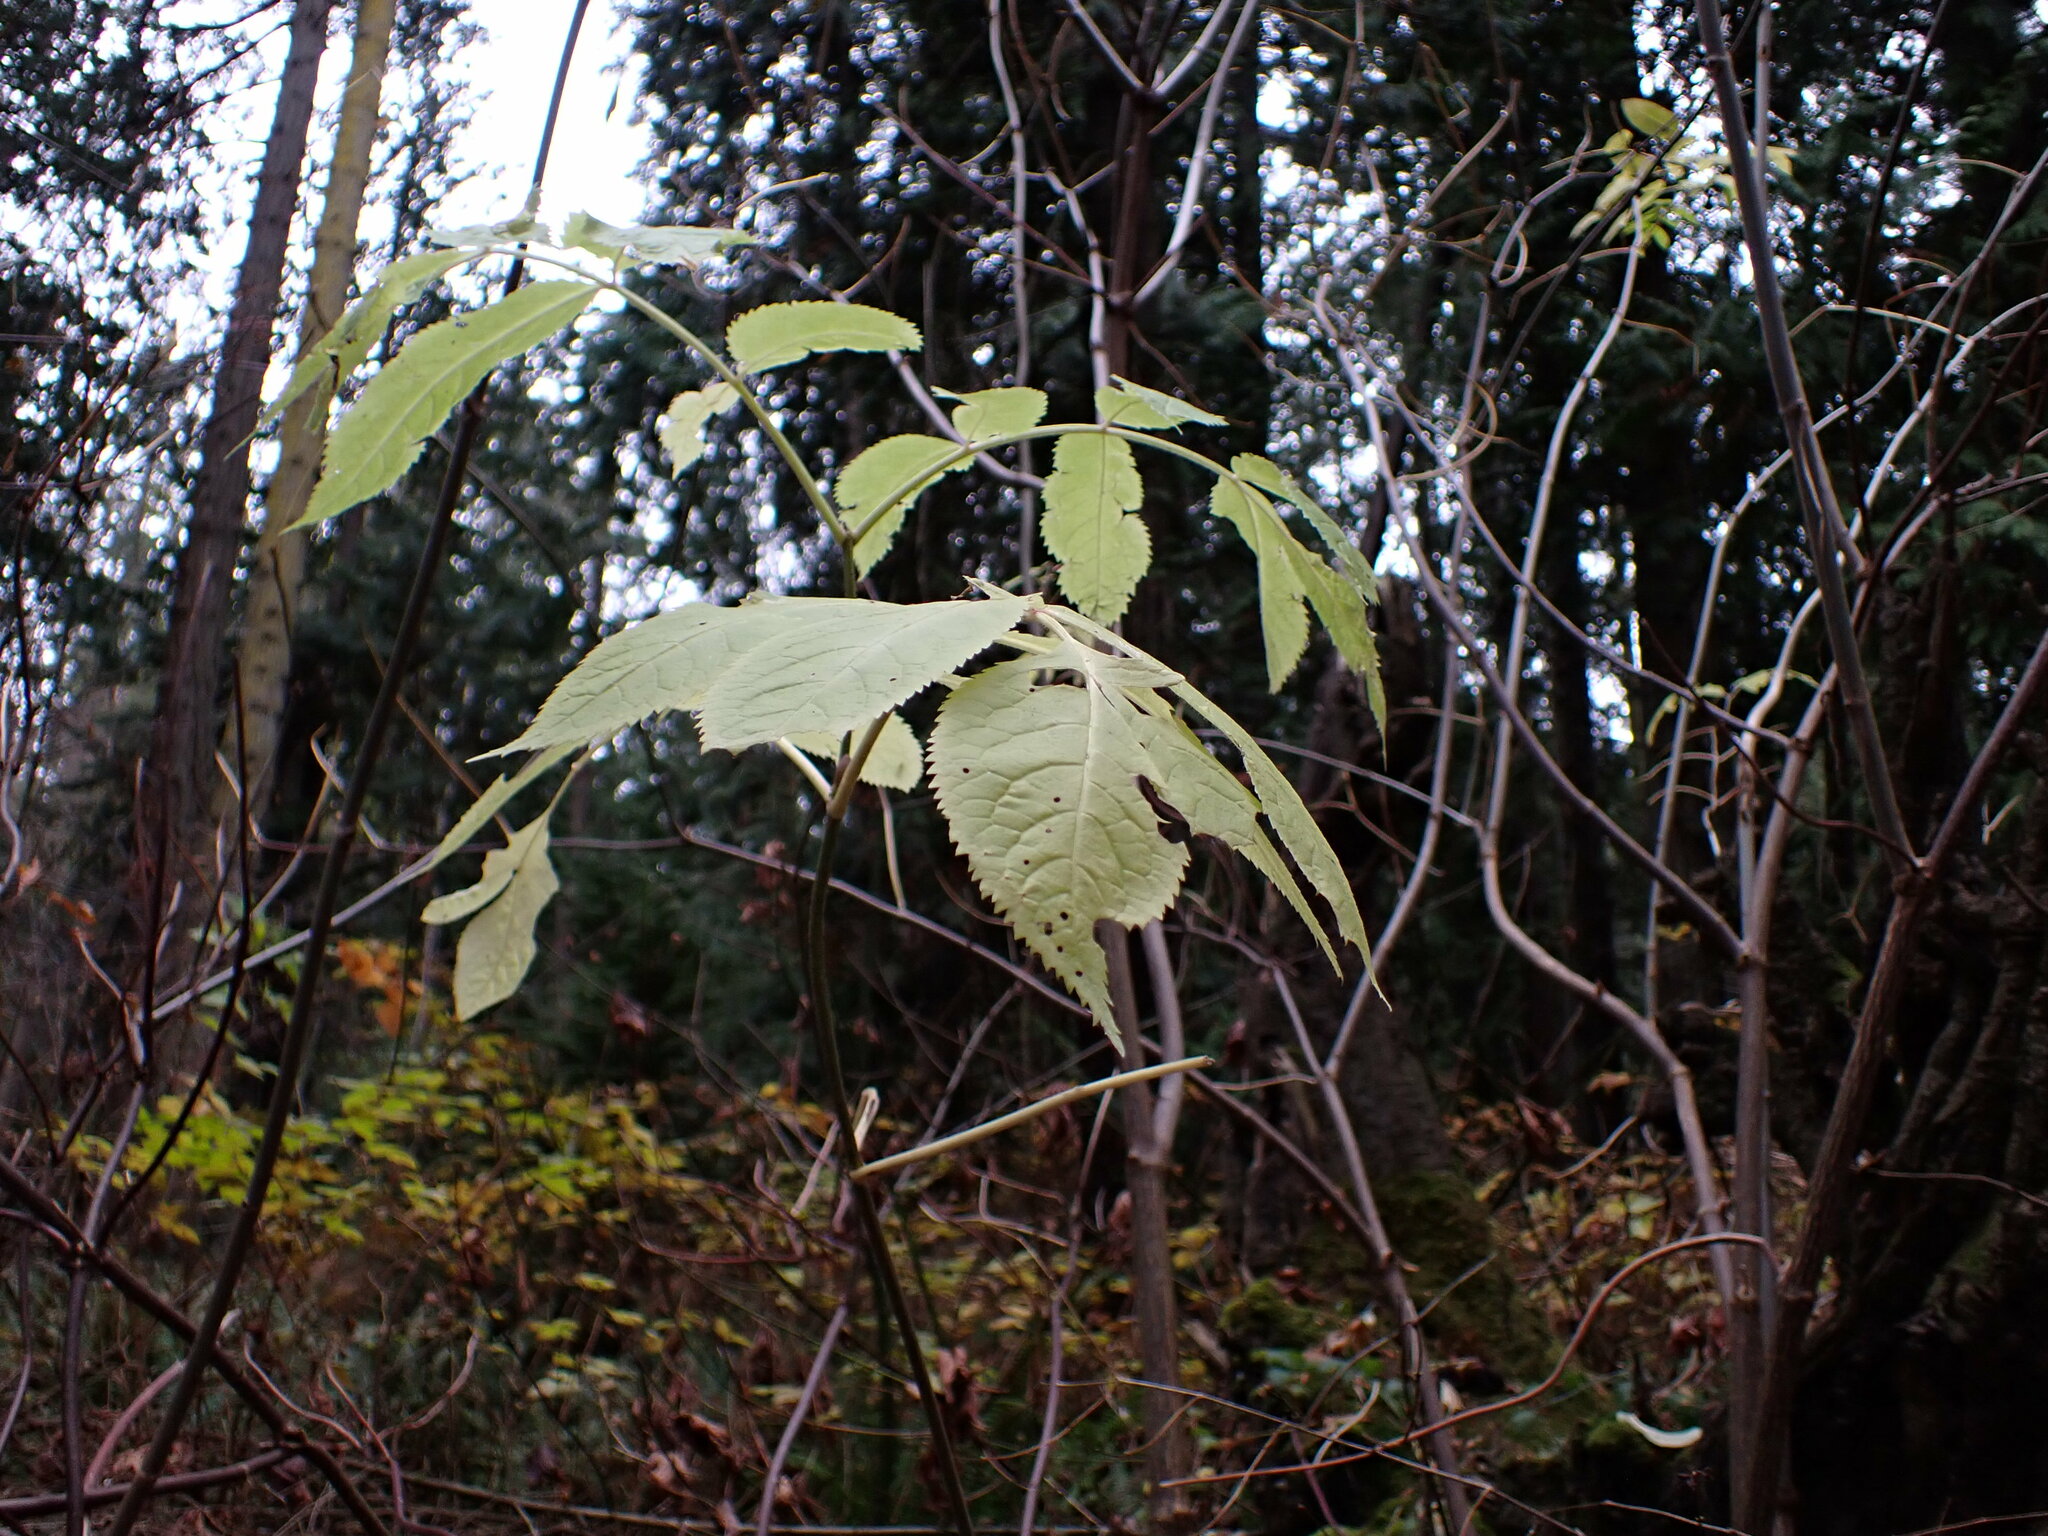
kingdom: Plantae
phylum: Tracheophyta
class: Magnoliopsida
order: Dipsacales
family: Viburnaceae
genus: Sambucus
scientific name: Sambucus racemosa
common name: Red-berried elder
